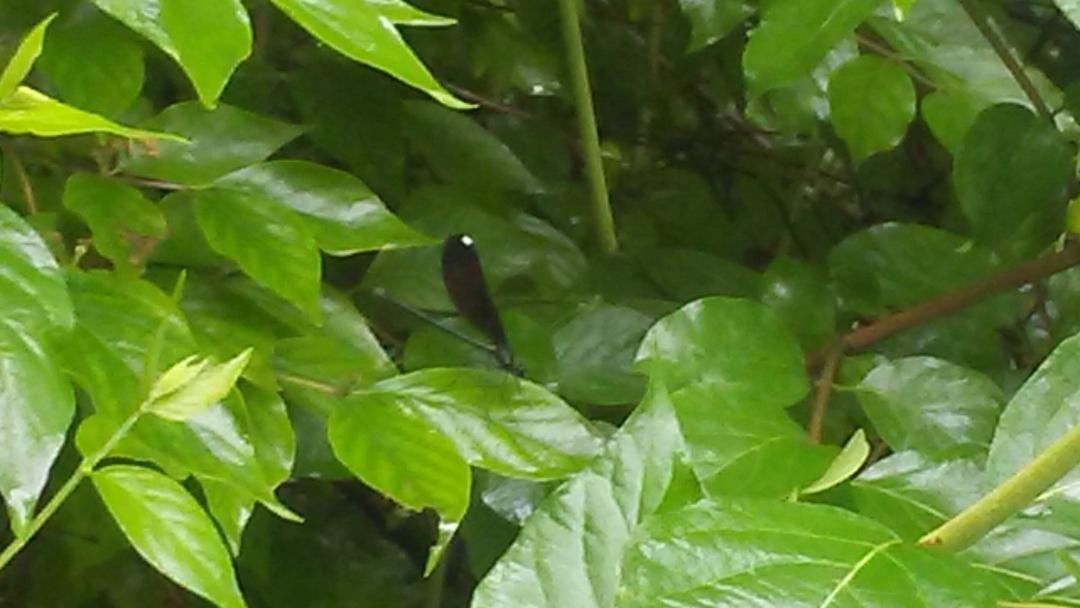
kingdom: Animalia
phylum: Arthropoda
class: Insecta
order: Odonata
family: Calopterygidae
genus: Calopteryx
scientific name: Calopteryx maculata
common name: Ebony jewelwing
